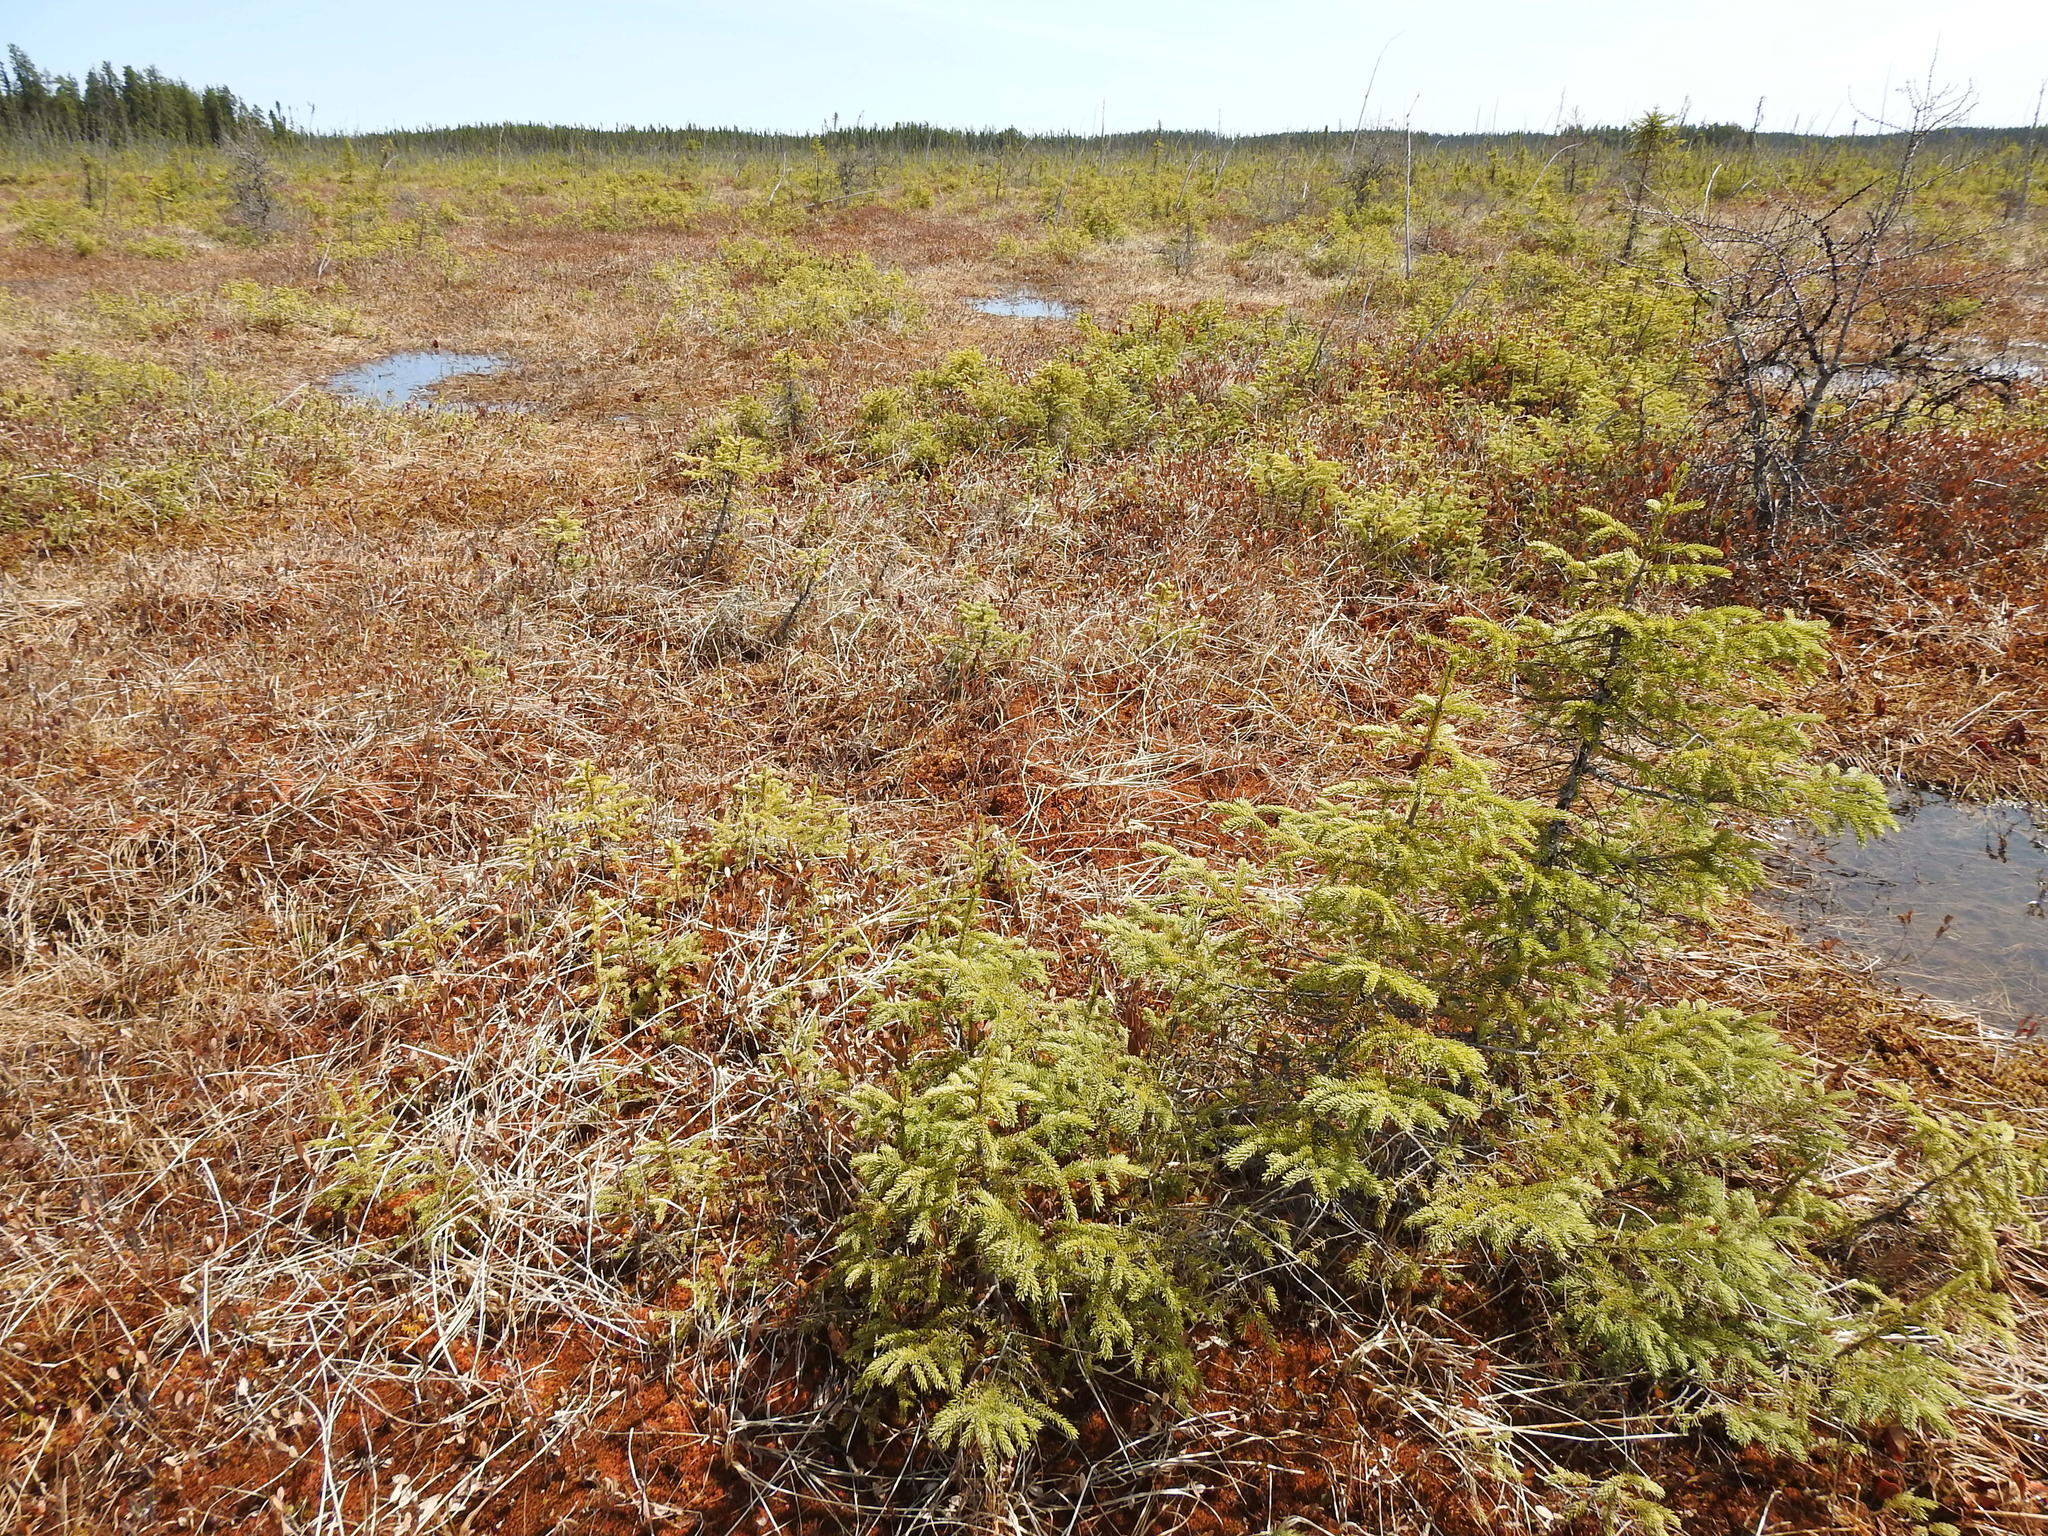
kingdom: Plantae
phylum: Tracheophyta
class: Pinopsida
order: Pinales
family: Pinaceae
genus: Picea
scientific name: Picea mariana
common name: Black spruce
